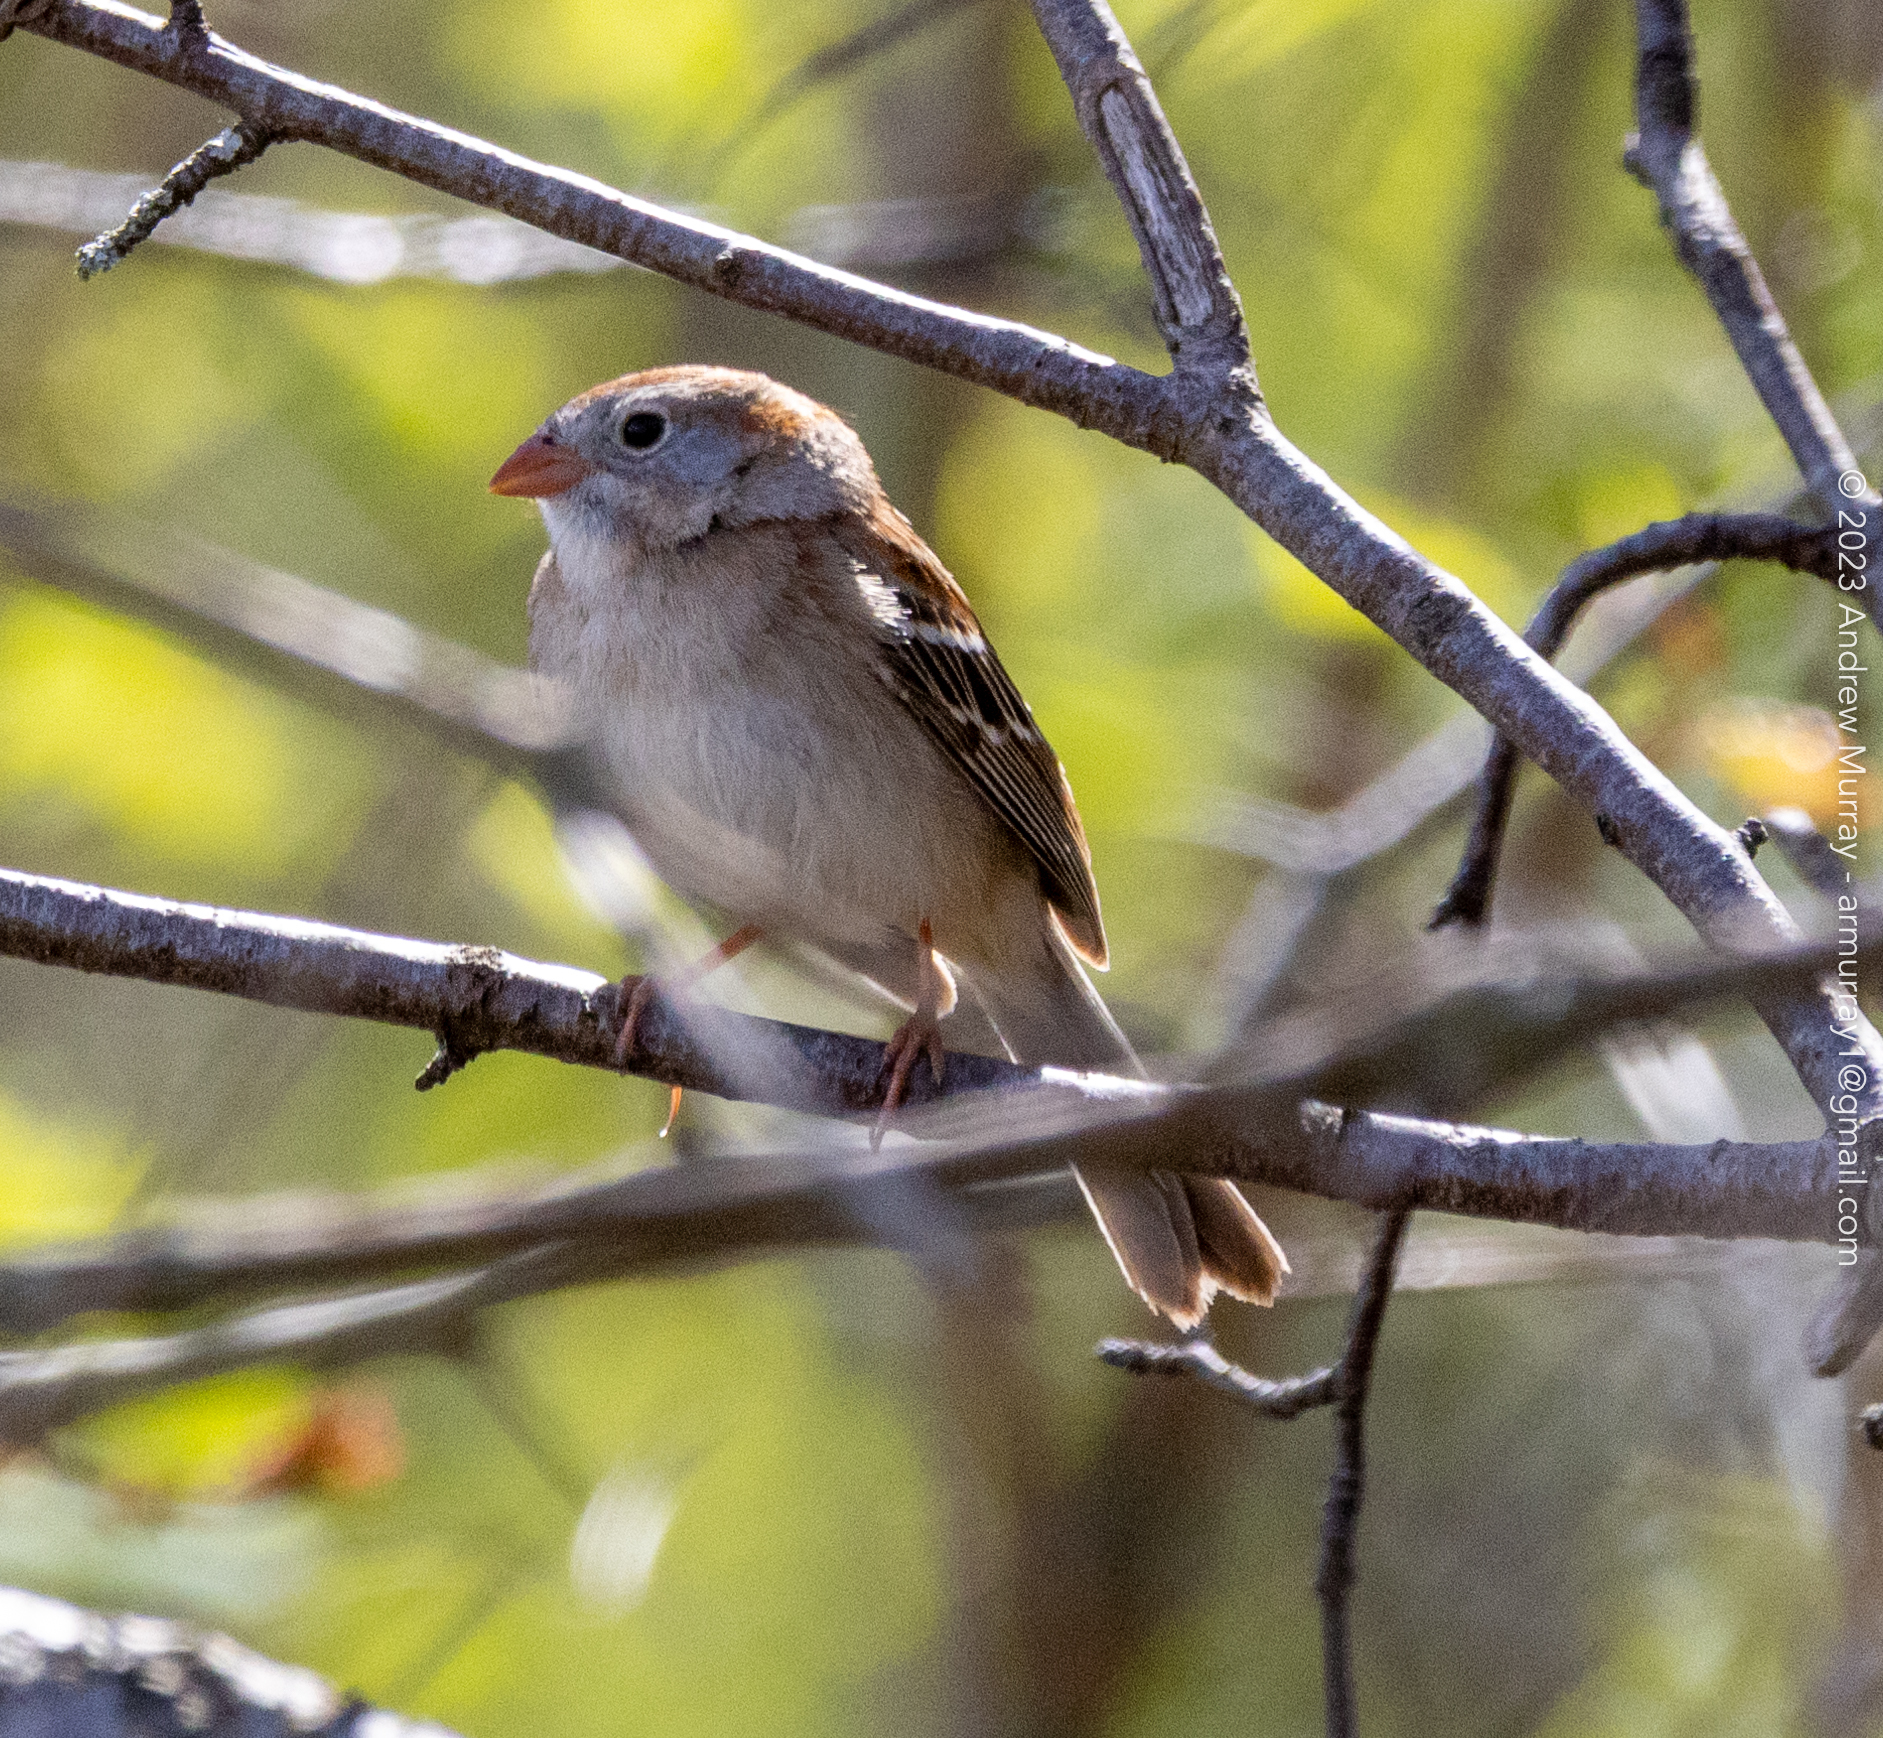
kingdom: Animalia
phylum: Chordata
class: Aves
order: Passeriformes
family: Passerellidae
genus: Spizella
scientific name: Spizella pusilla
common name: Field sparrow
